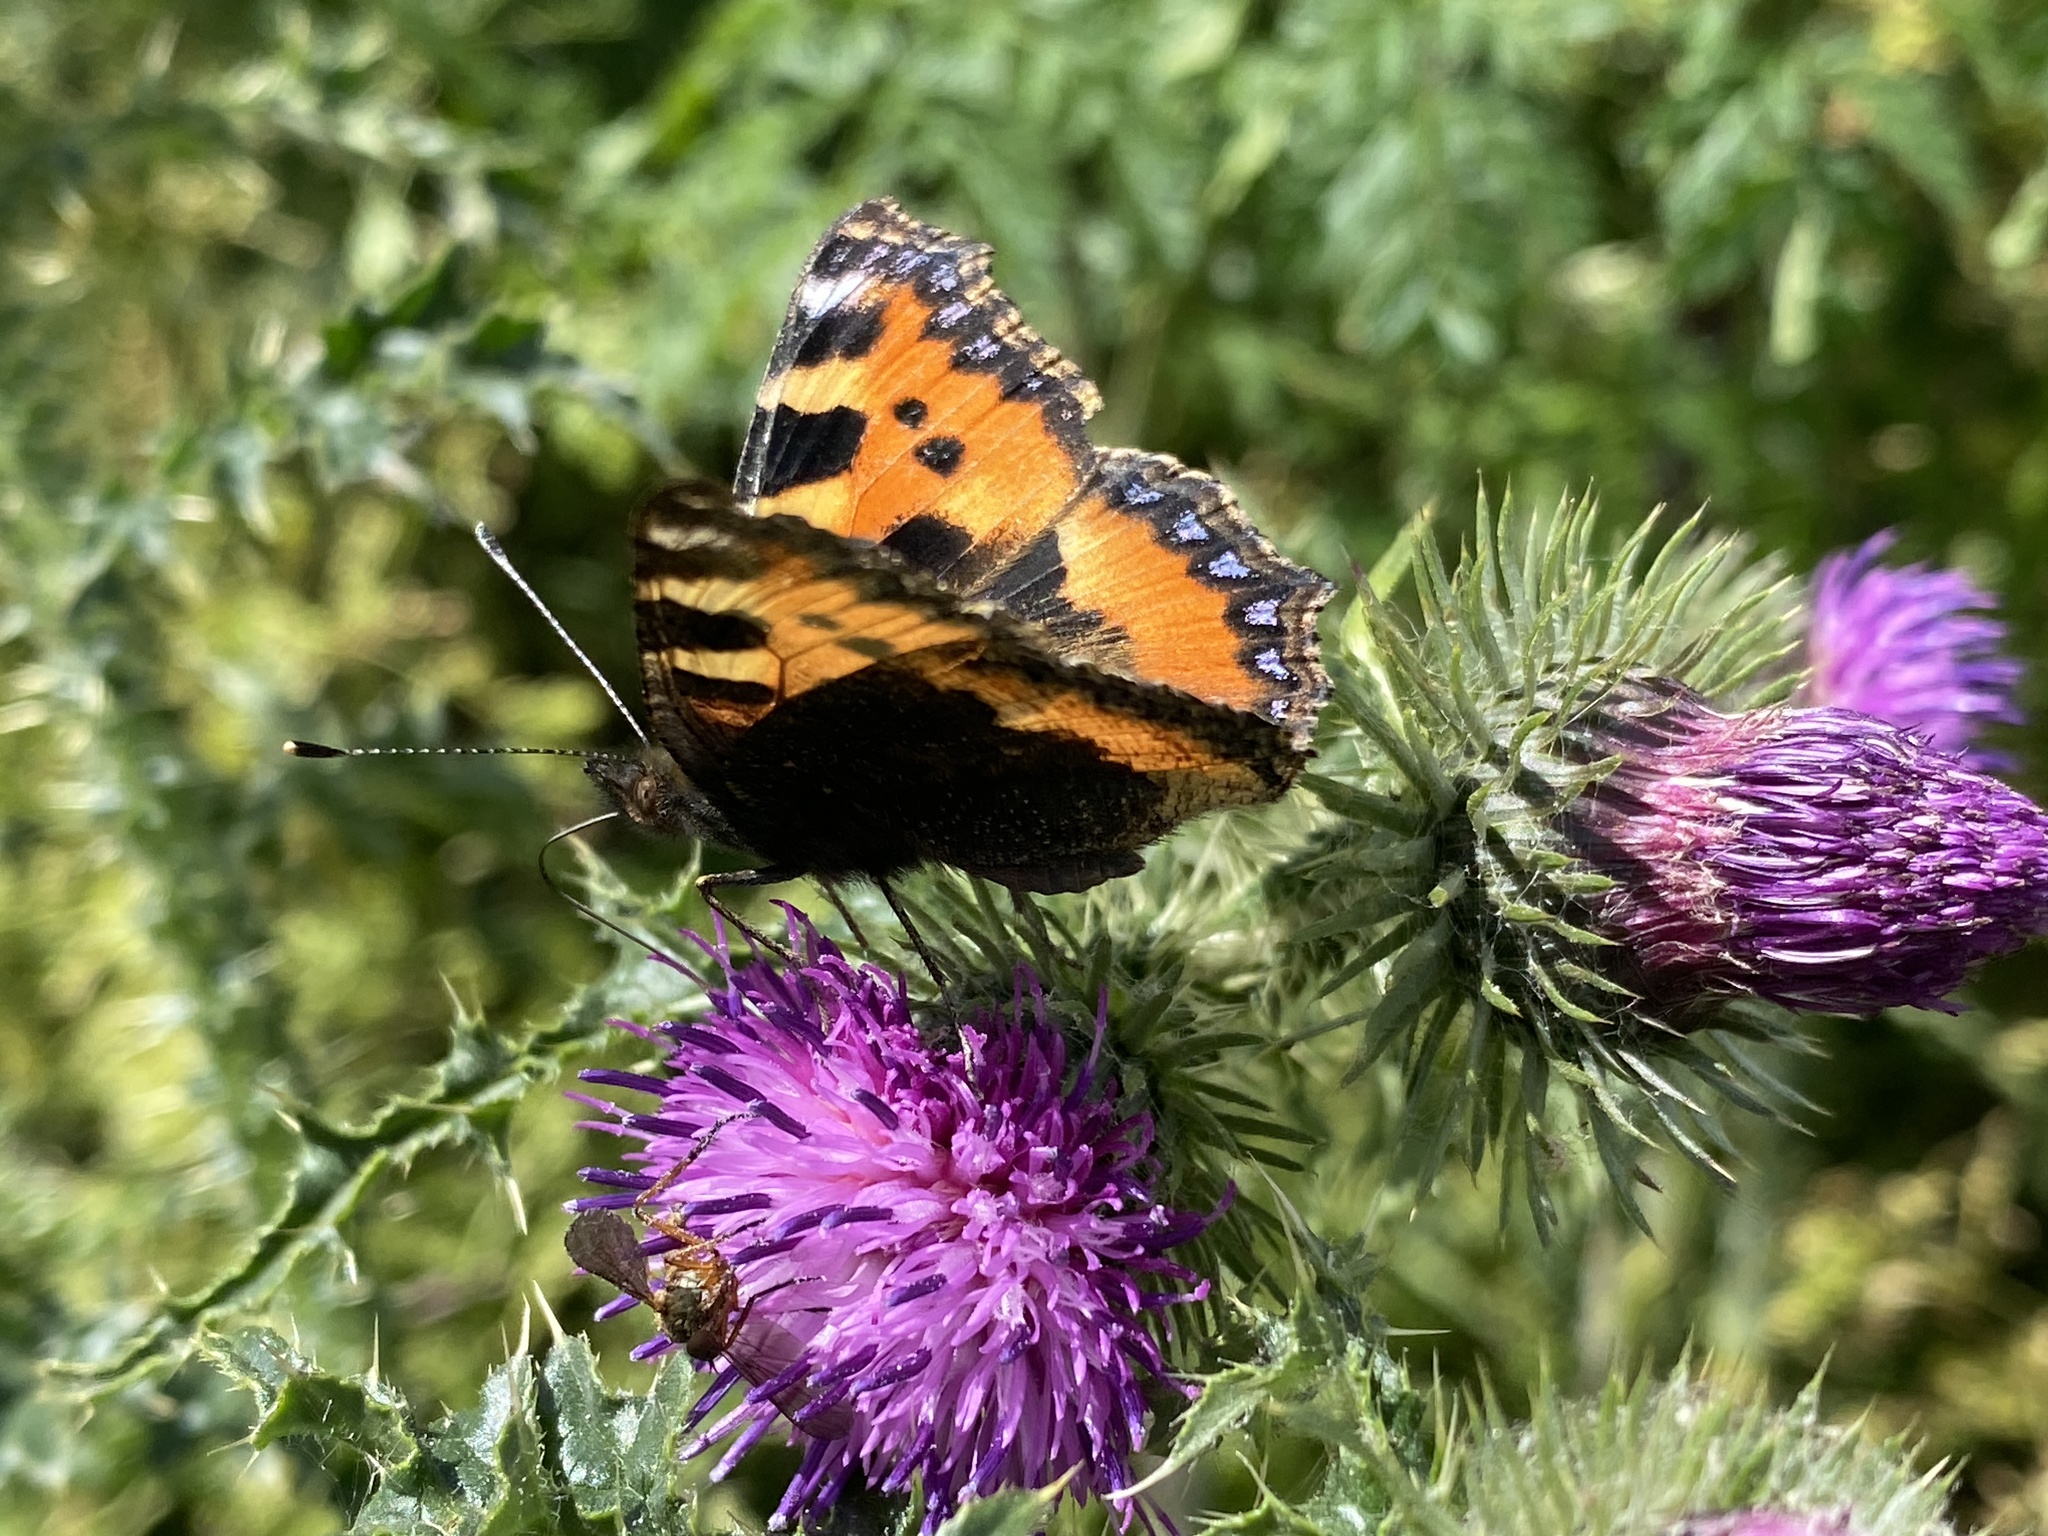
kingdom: Animalia
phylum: Arthropoda
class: Insecta
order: Lepidoptera
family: Nymphalidae
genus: Aglais
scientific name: Aglais urticae
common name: Small tortoiseshell
